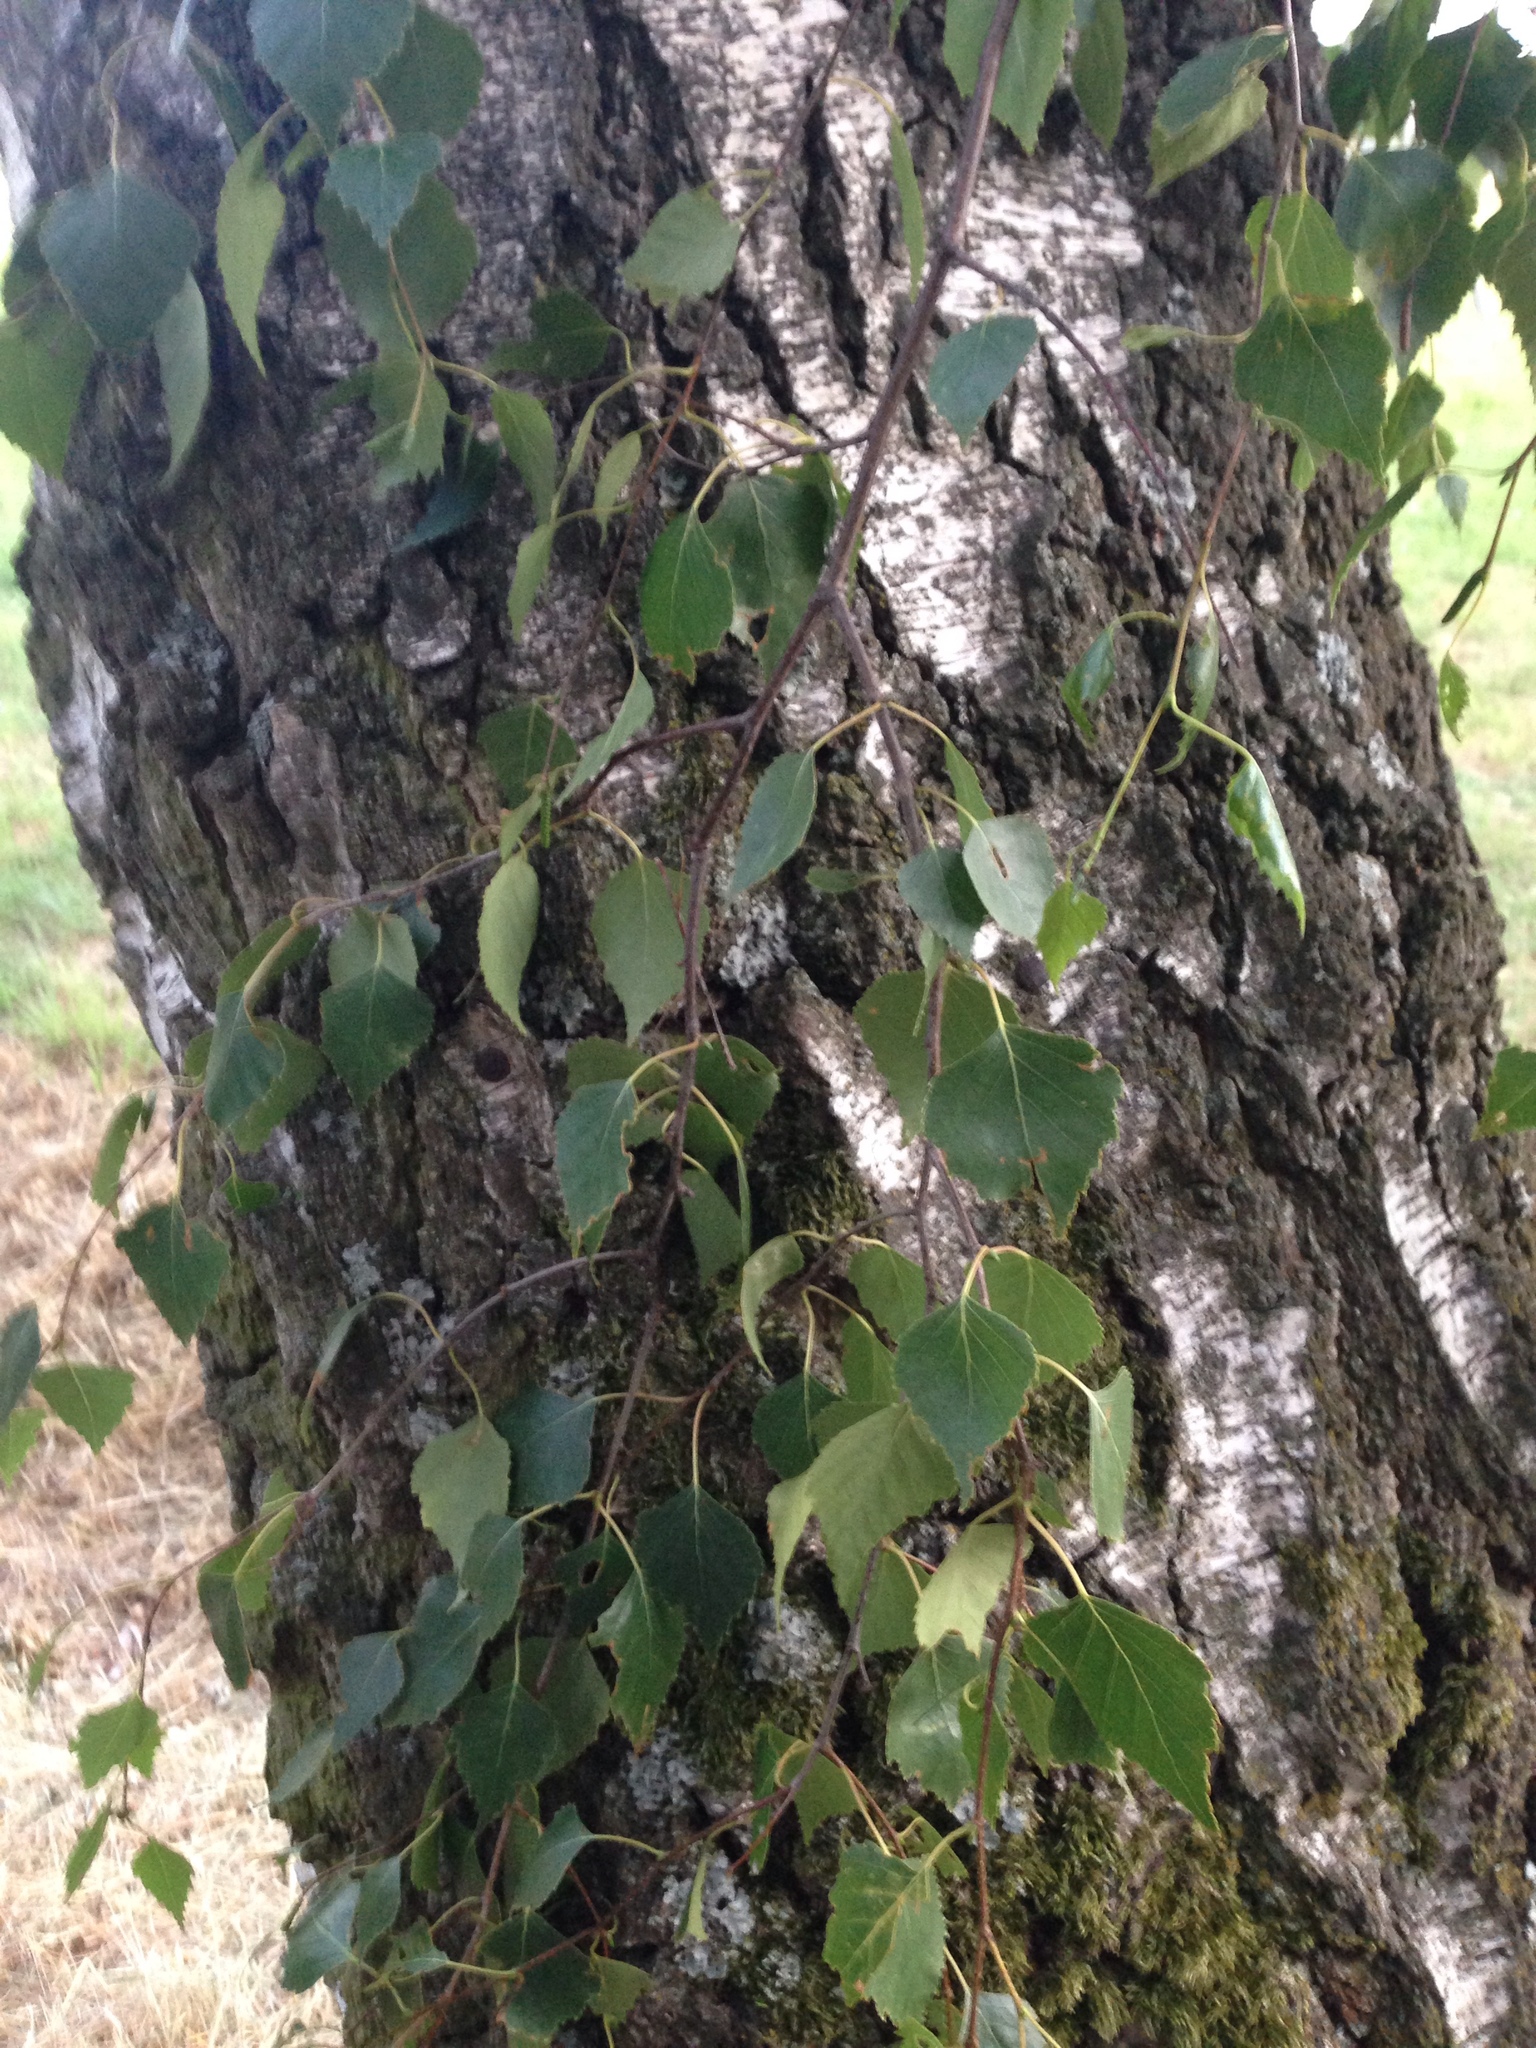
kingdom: Plantae
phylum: Tracheophyta
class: Magnoliopsida
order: Fagales
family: Betulaceae
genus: Betula
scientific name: Betula pendula
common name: Silver birch
